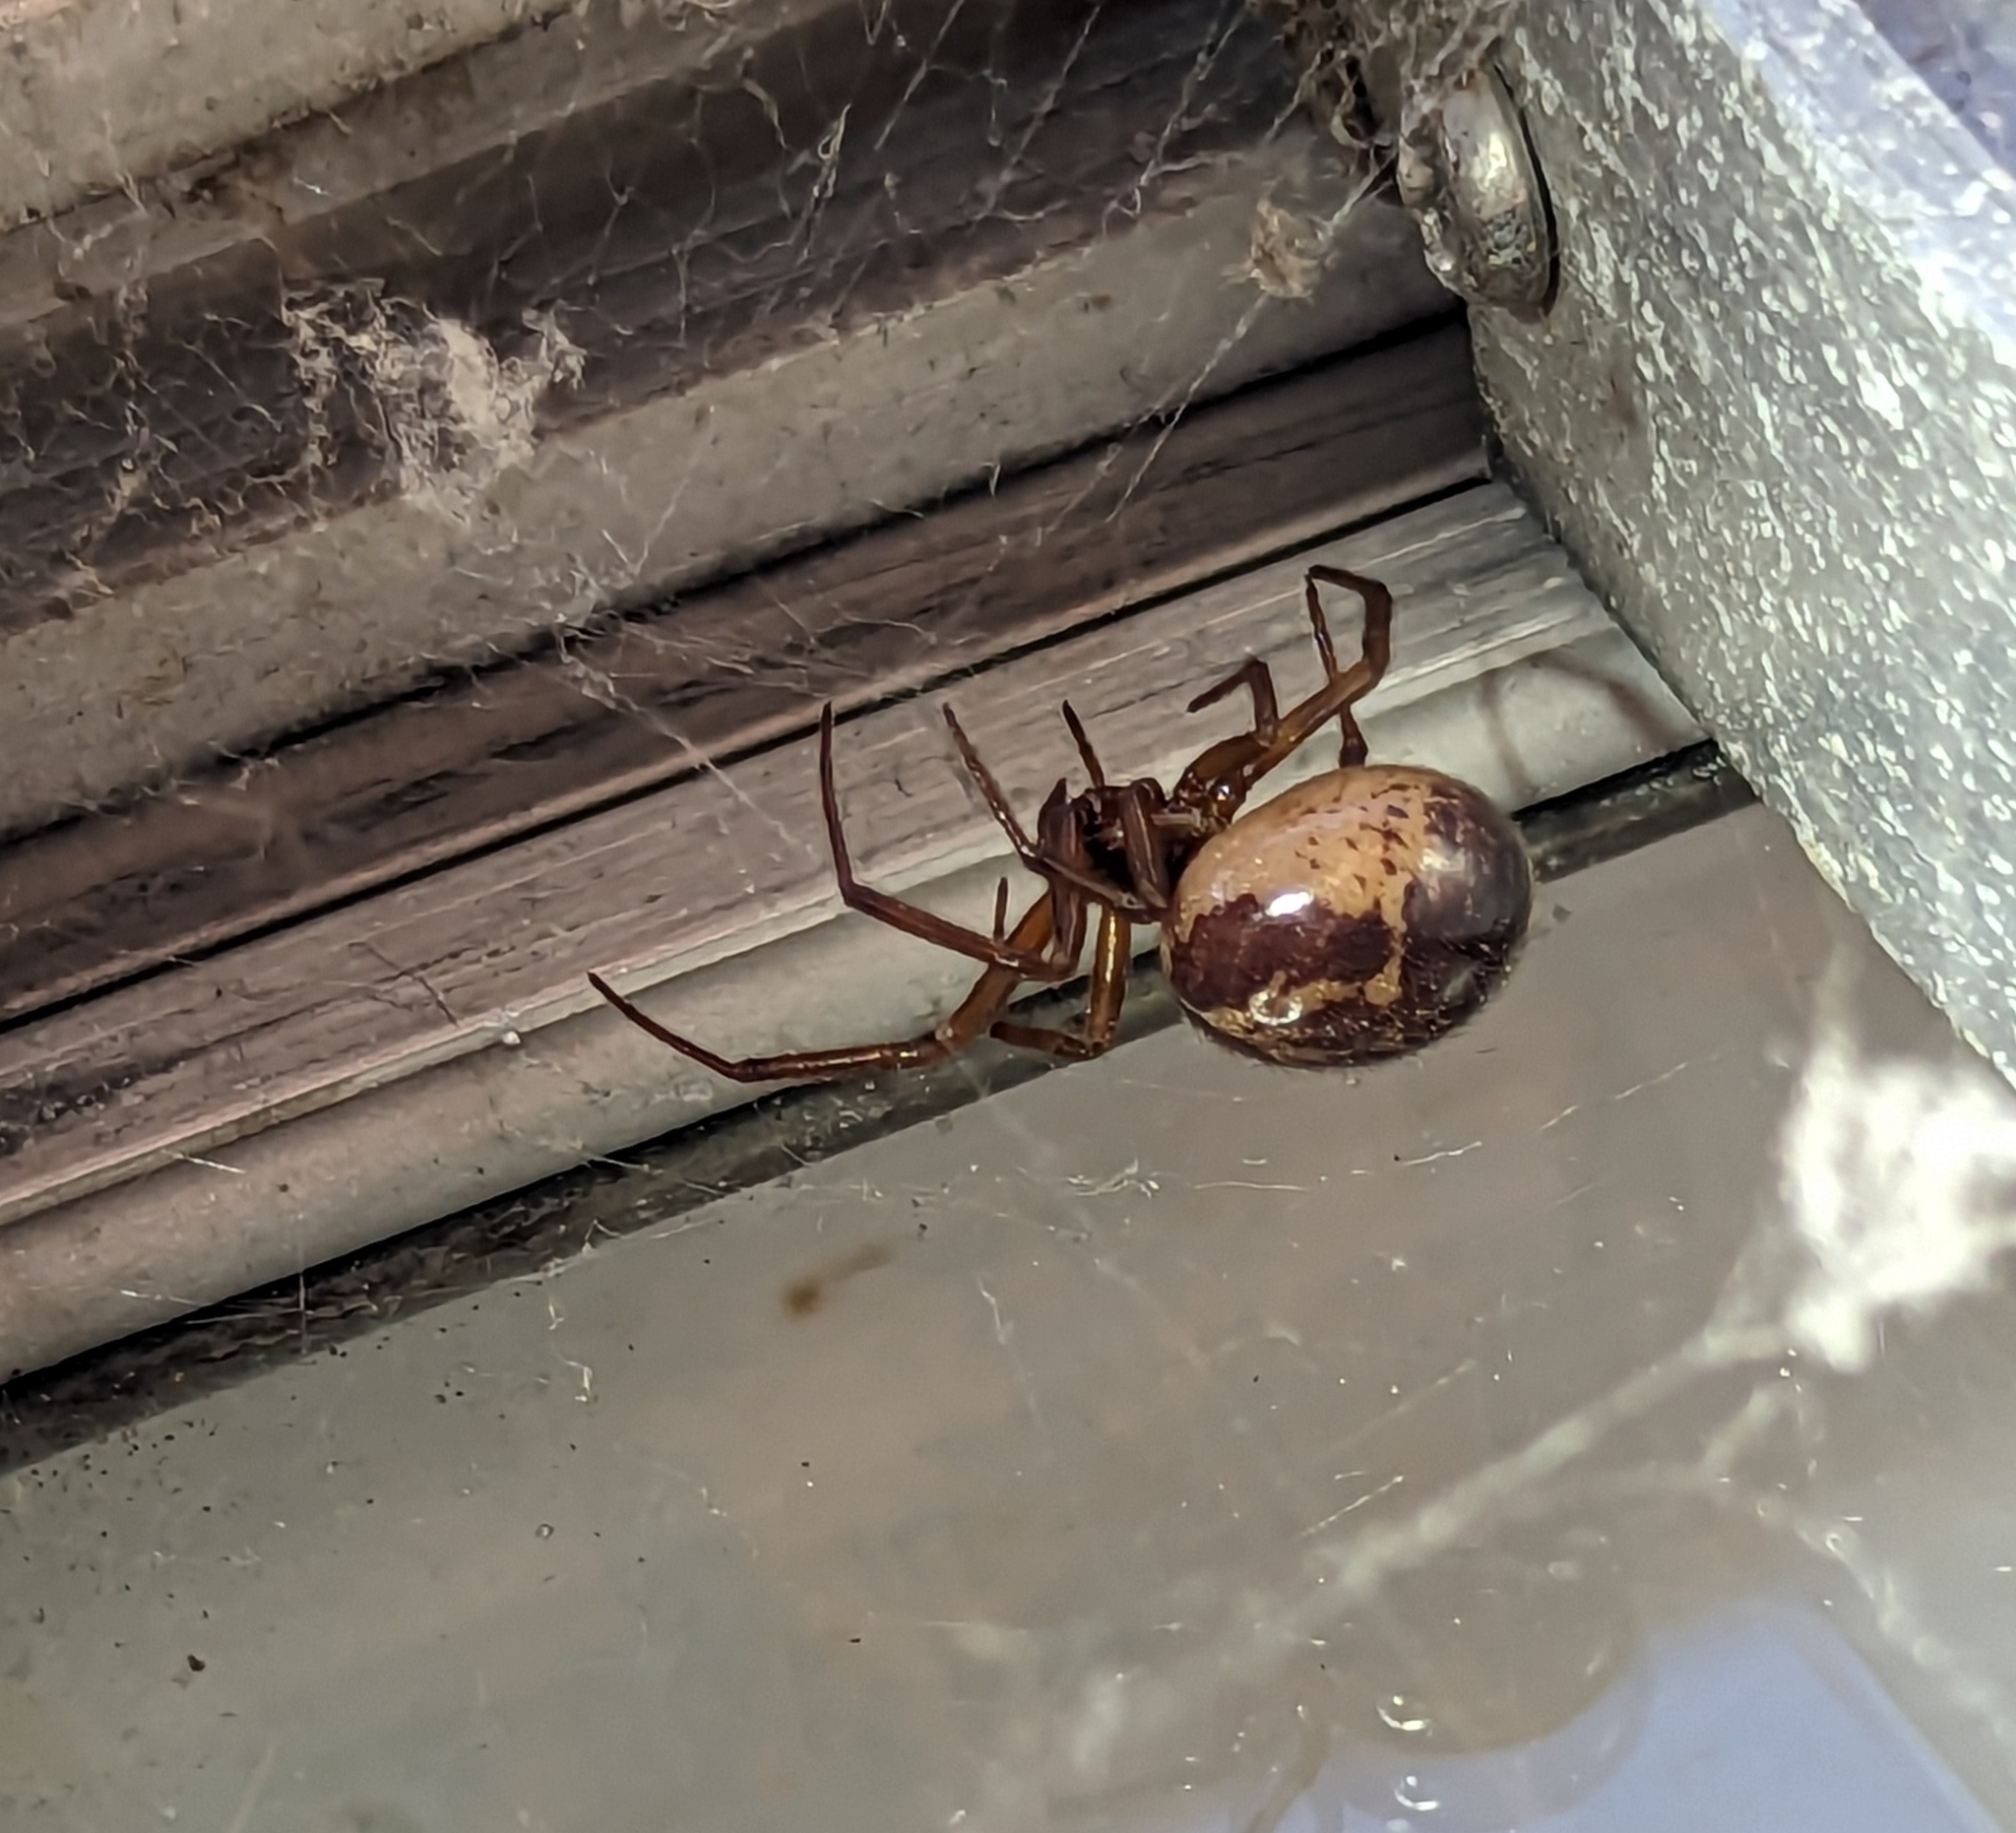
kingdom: Animalia
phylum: Arthropoda
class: Arachnida
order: Araneae
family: Theridiidae
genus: Steatoda
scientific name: Steatoda nobilis
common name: Cobweb weaver
